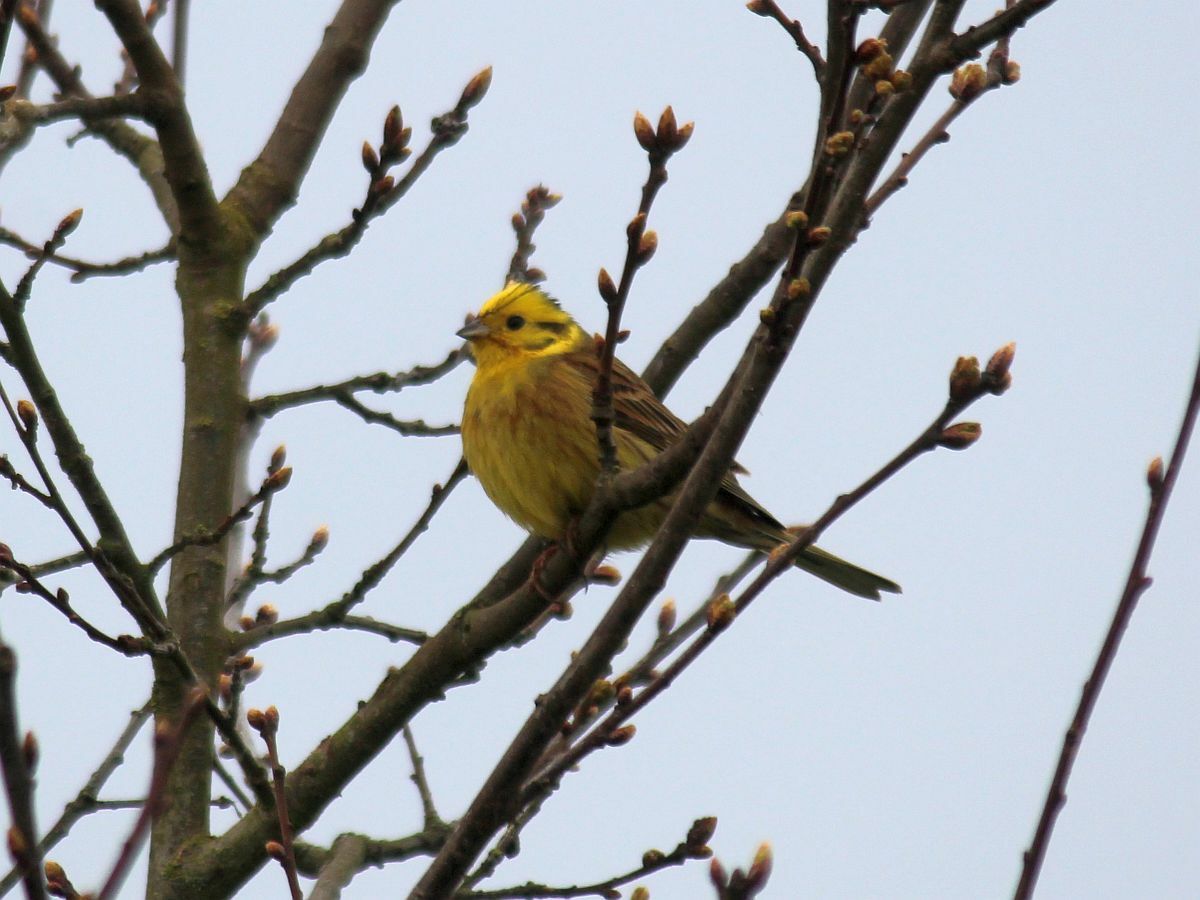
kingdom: Animalia
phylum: Chordata
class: Aves
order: Passeriformes
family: Emberizidae
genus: Emberiza
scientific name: Emberiza citrinella
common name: Yellowhammer
